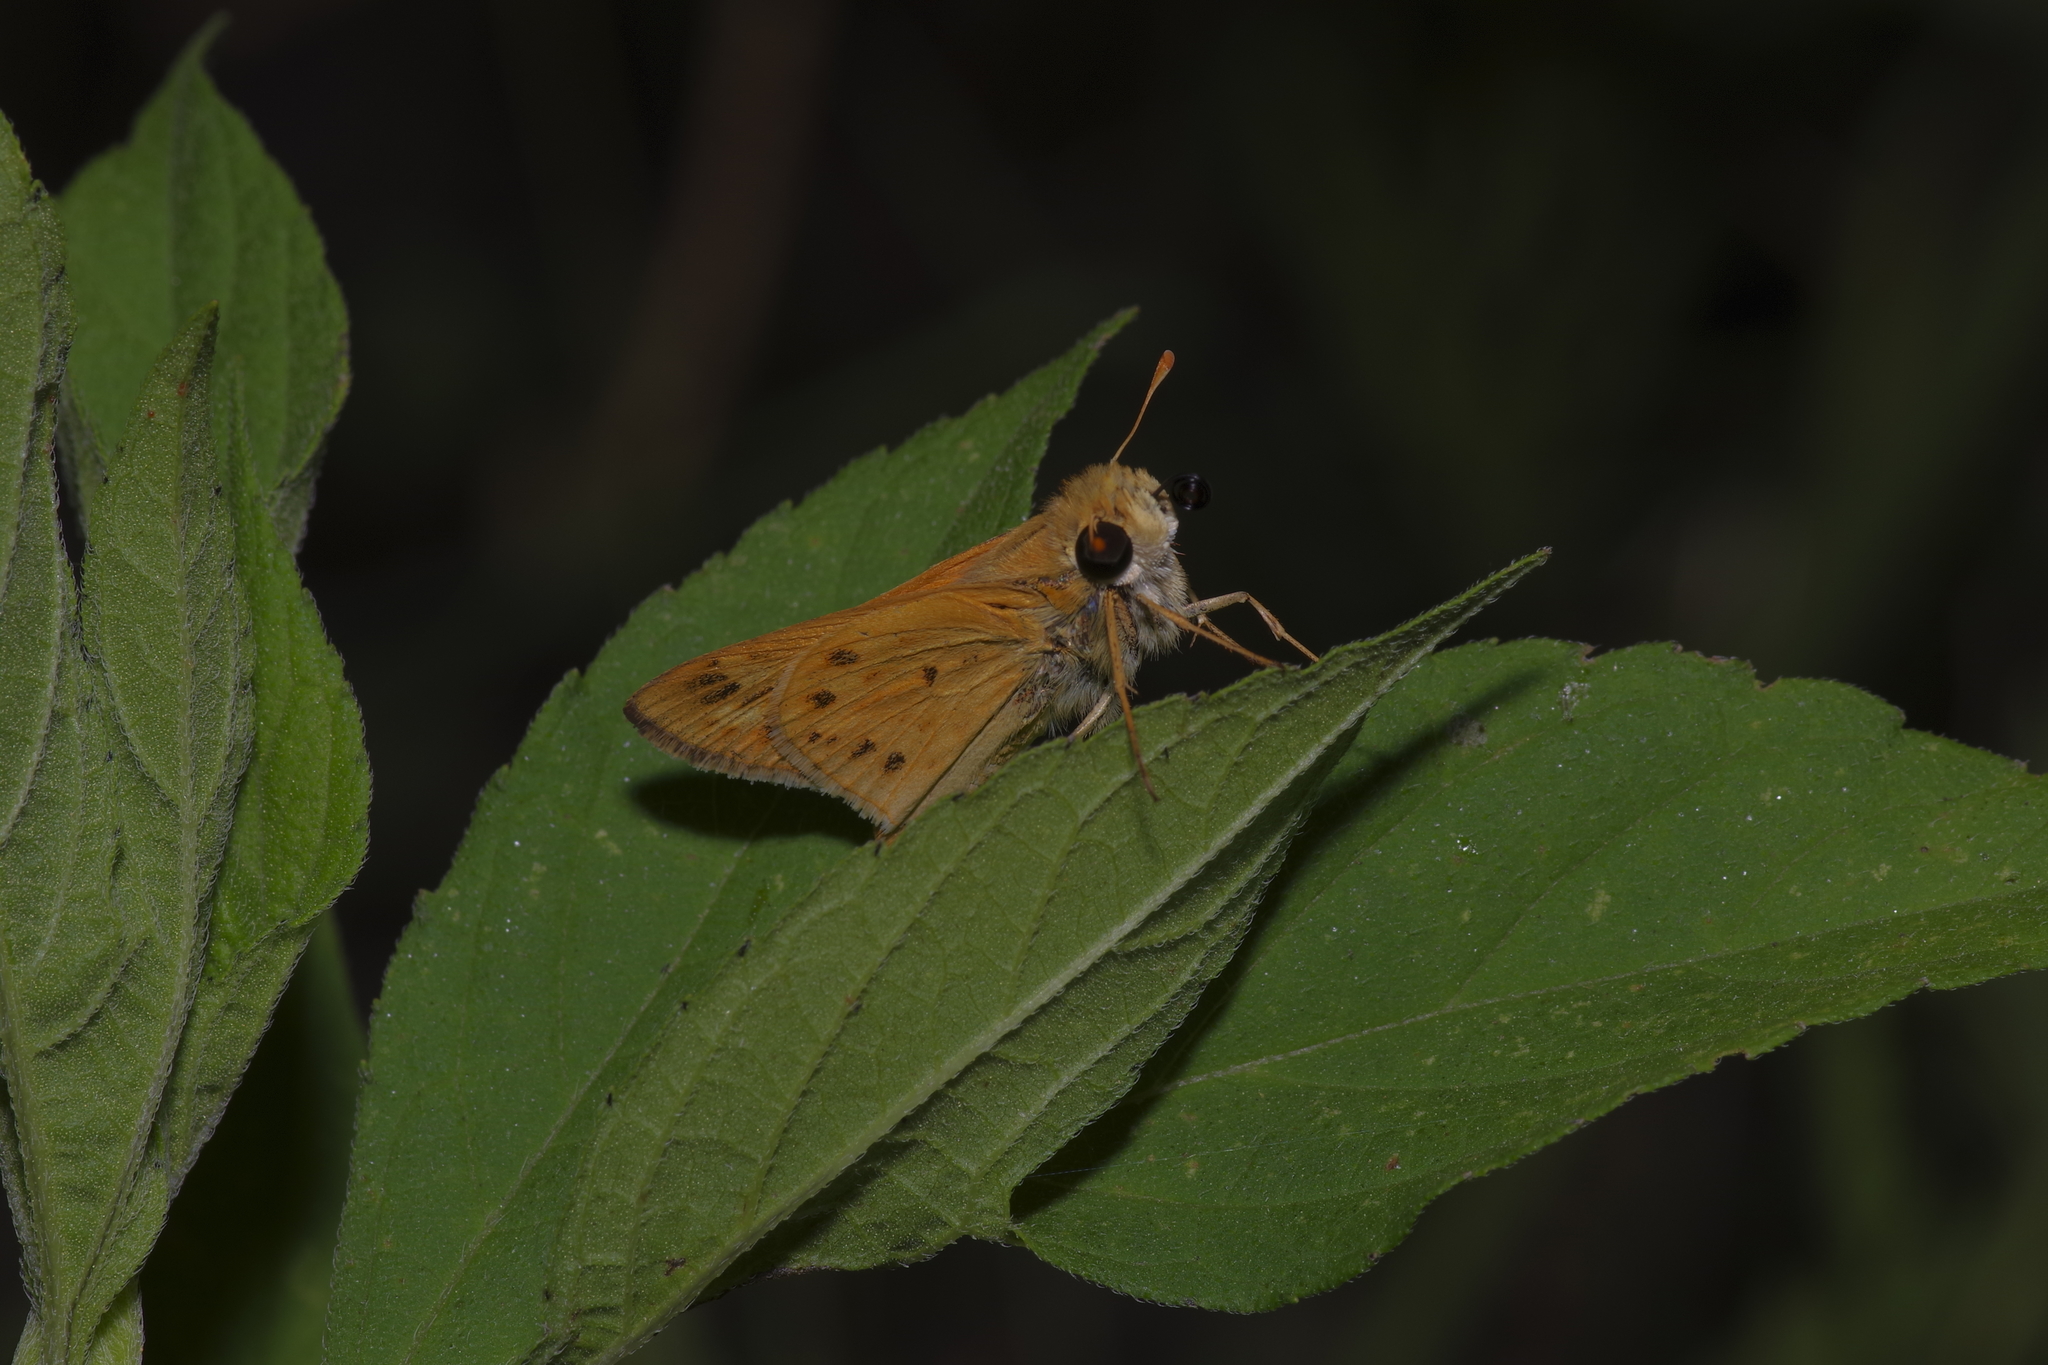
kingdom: Animalia
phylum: Arthropoda
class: Insecta
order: Lepidoptera
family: Hesperiidae
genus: Hylephila
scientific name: Hylephila phyleus
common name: Fiery skipper
